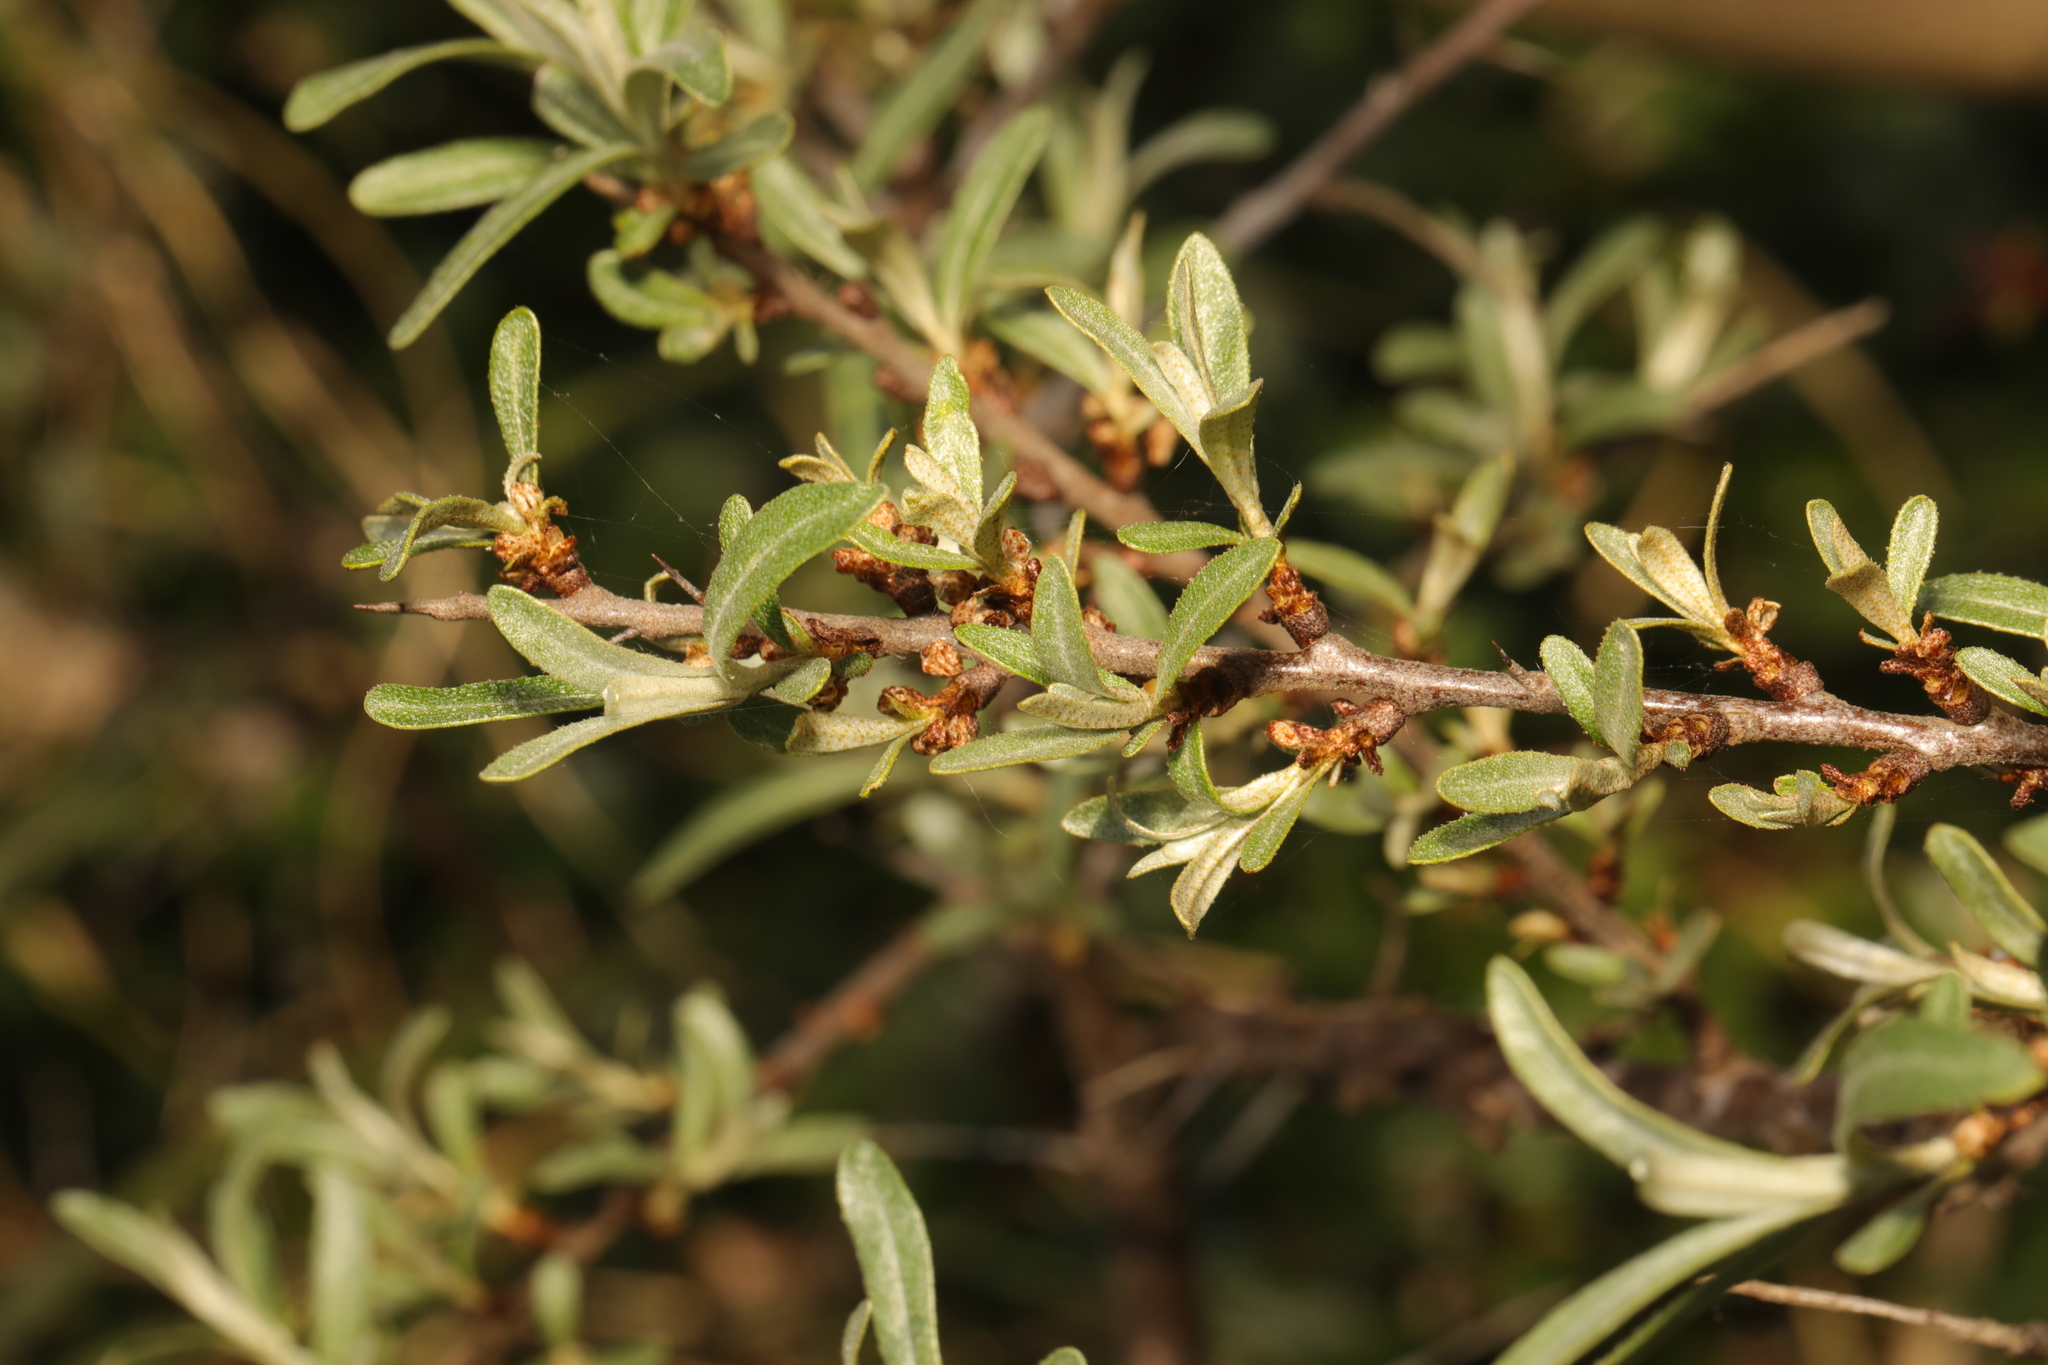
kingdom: Plantae
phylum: Tracheophyta
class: Magnoliopsida
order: Rosales
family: Elaeagnaceae
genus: Hippophae
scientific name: Hippophae rhamnoides
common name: Sea-buckthorn
